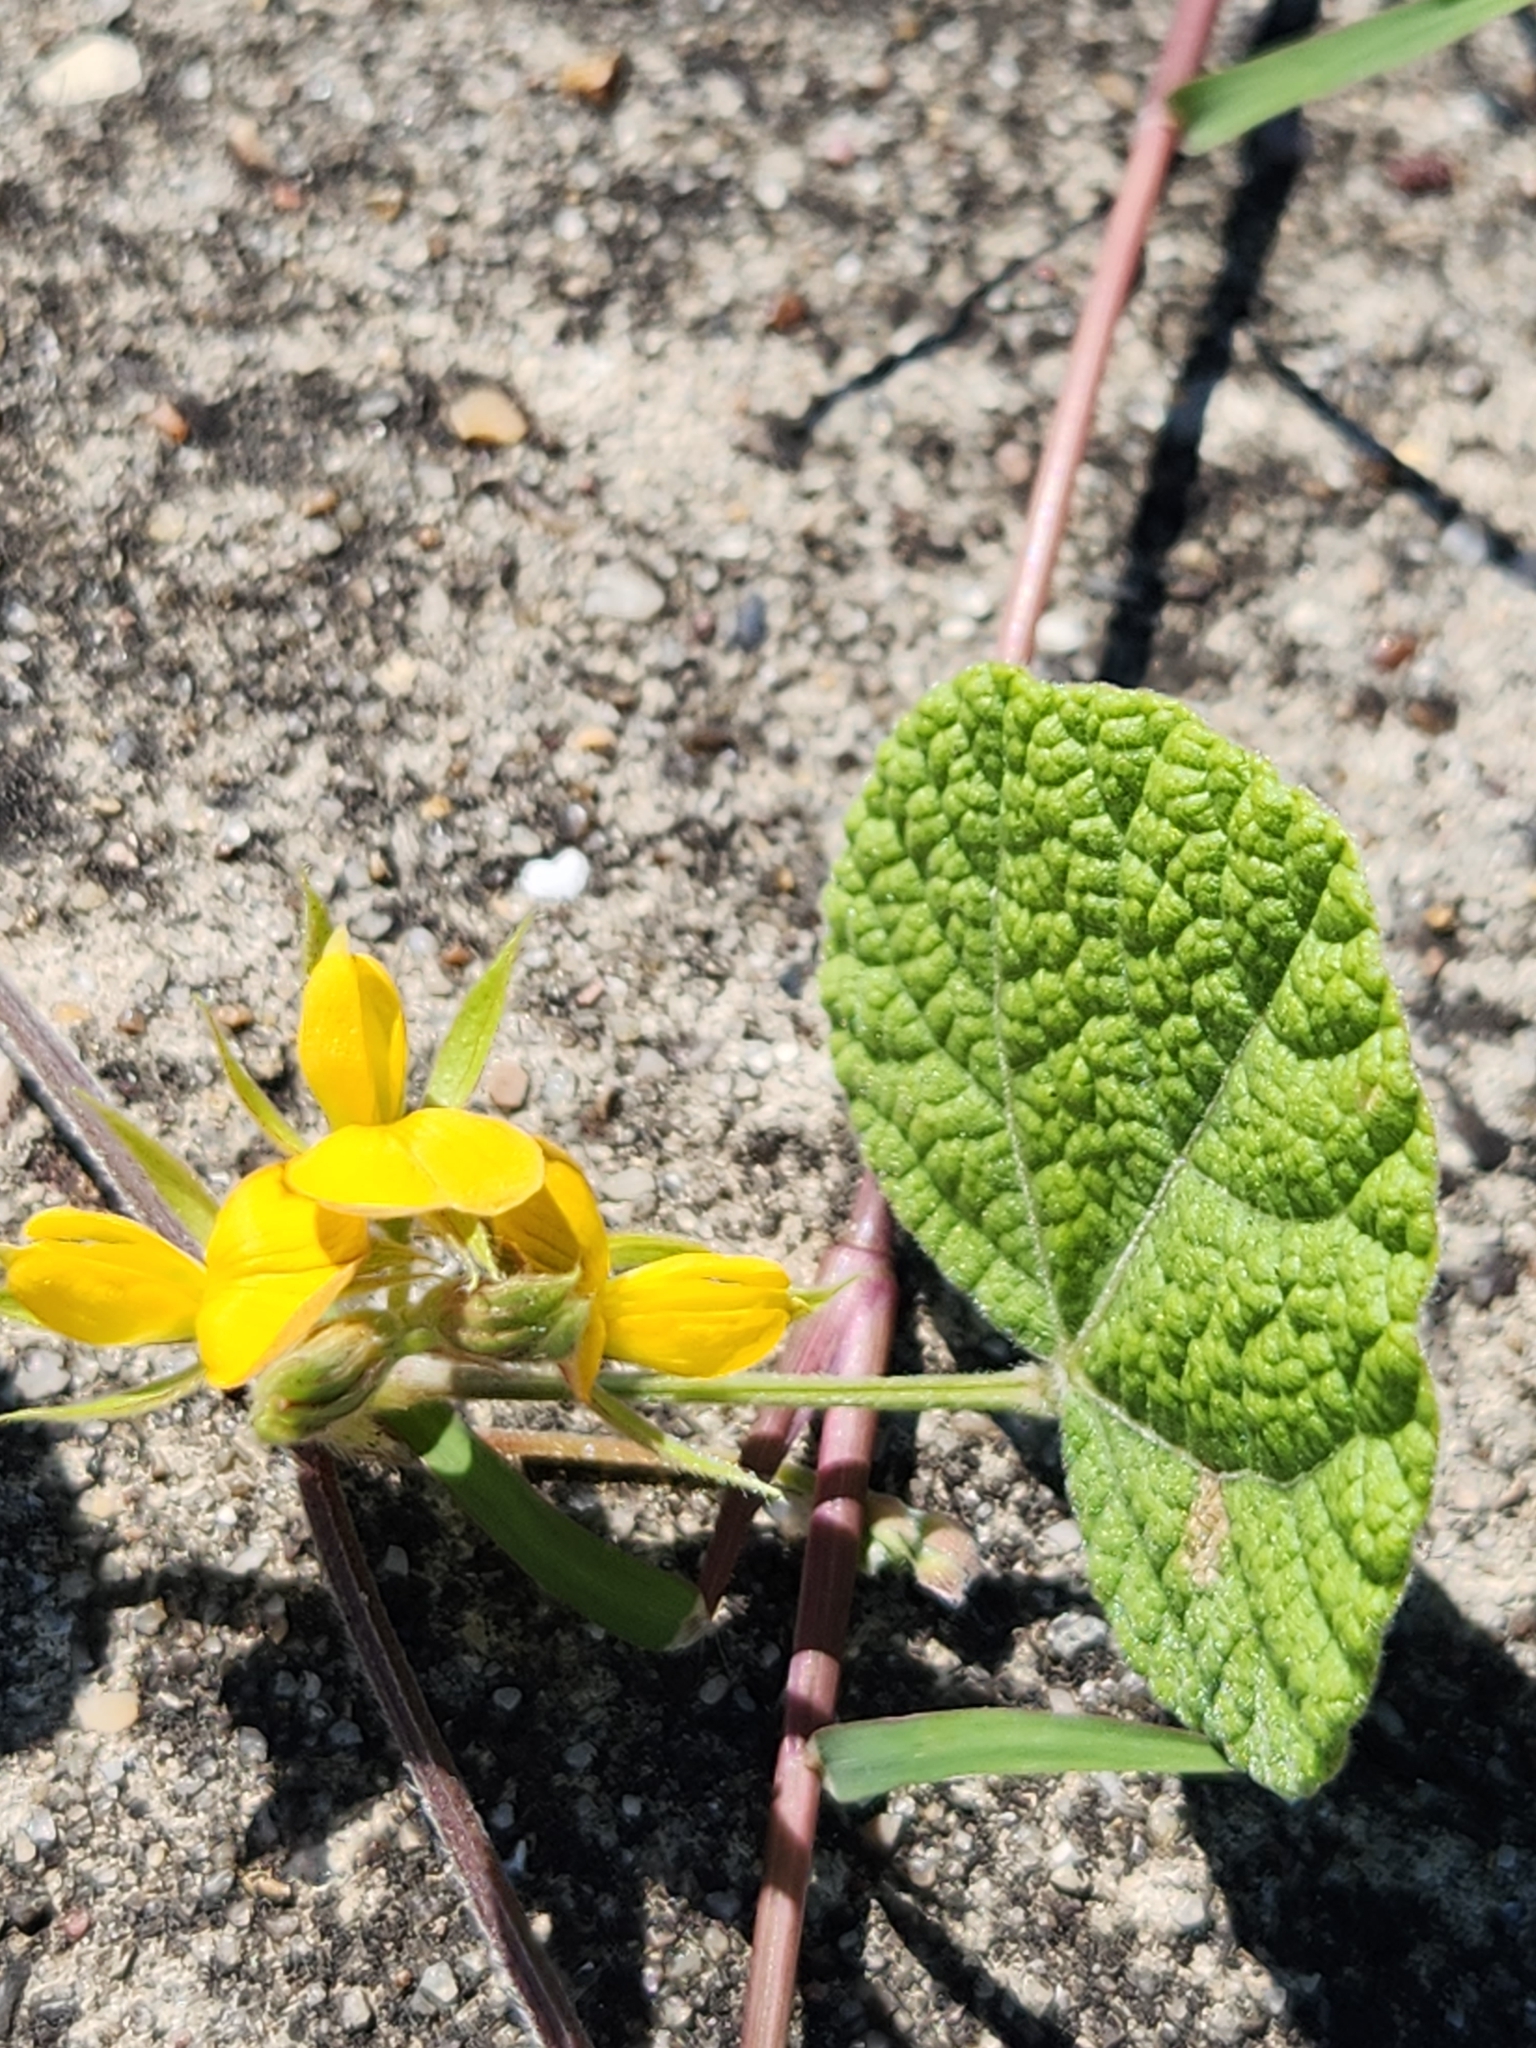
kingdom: Plantae
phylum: Tracheophyta
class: Magnoliopsida
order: Fabales
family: Fabaceae
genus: Rhynchosia
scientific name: Rhynchosia americana
